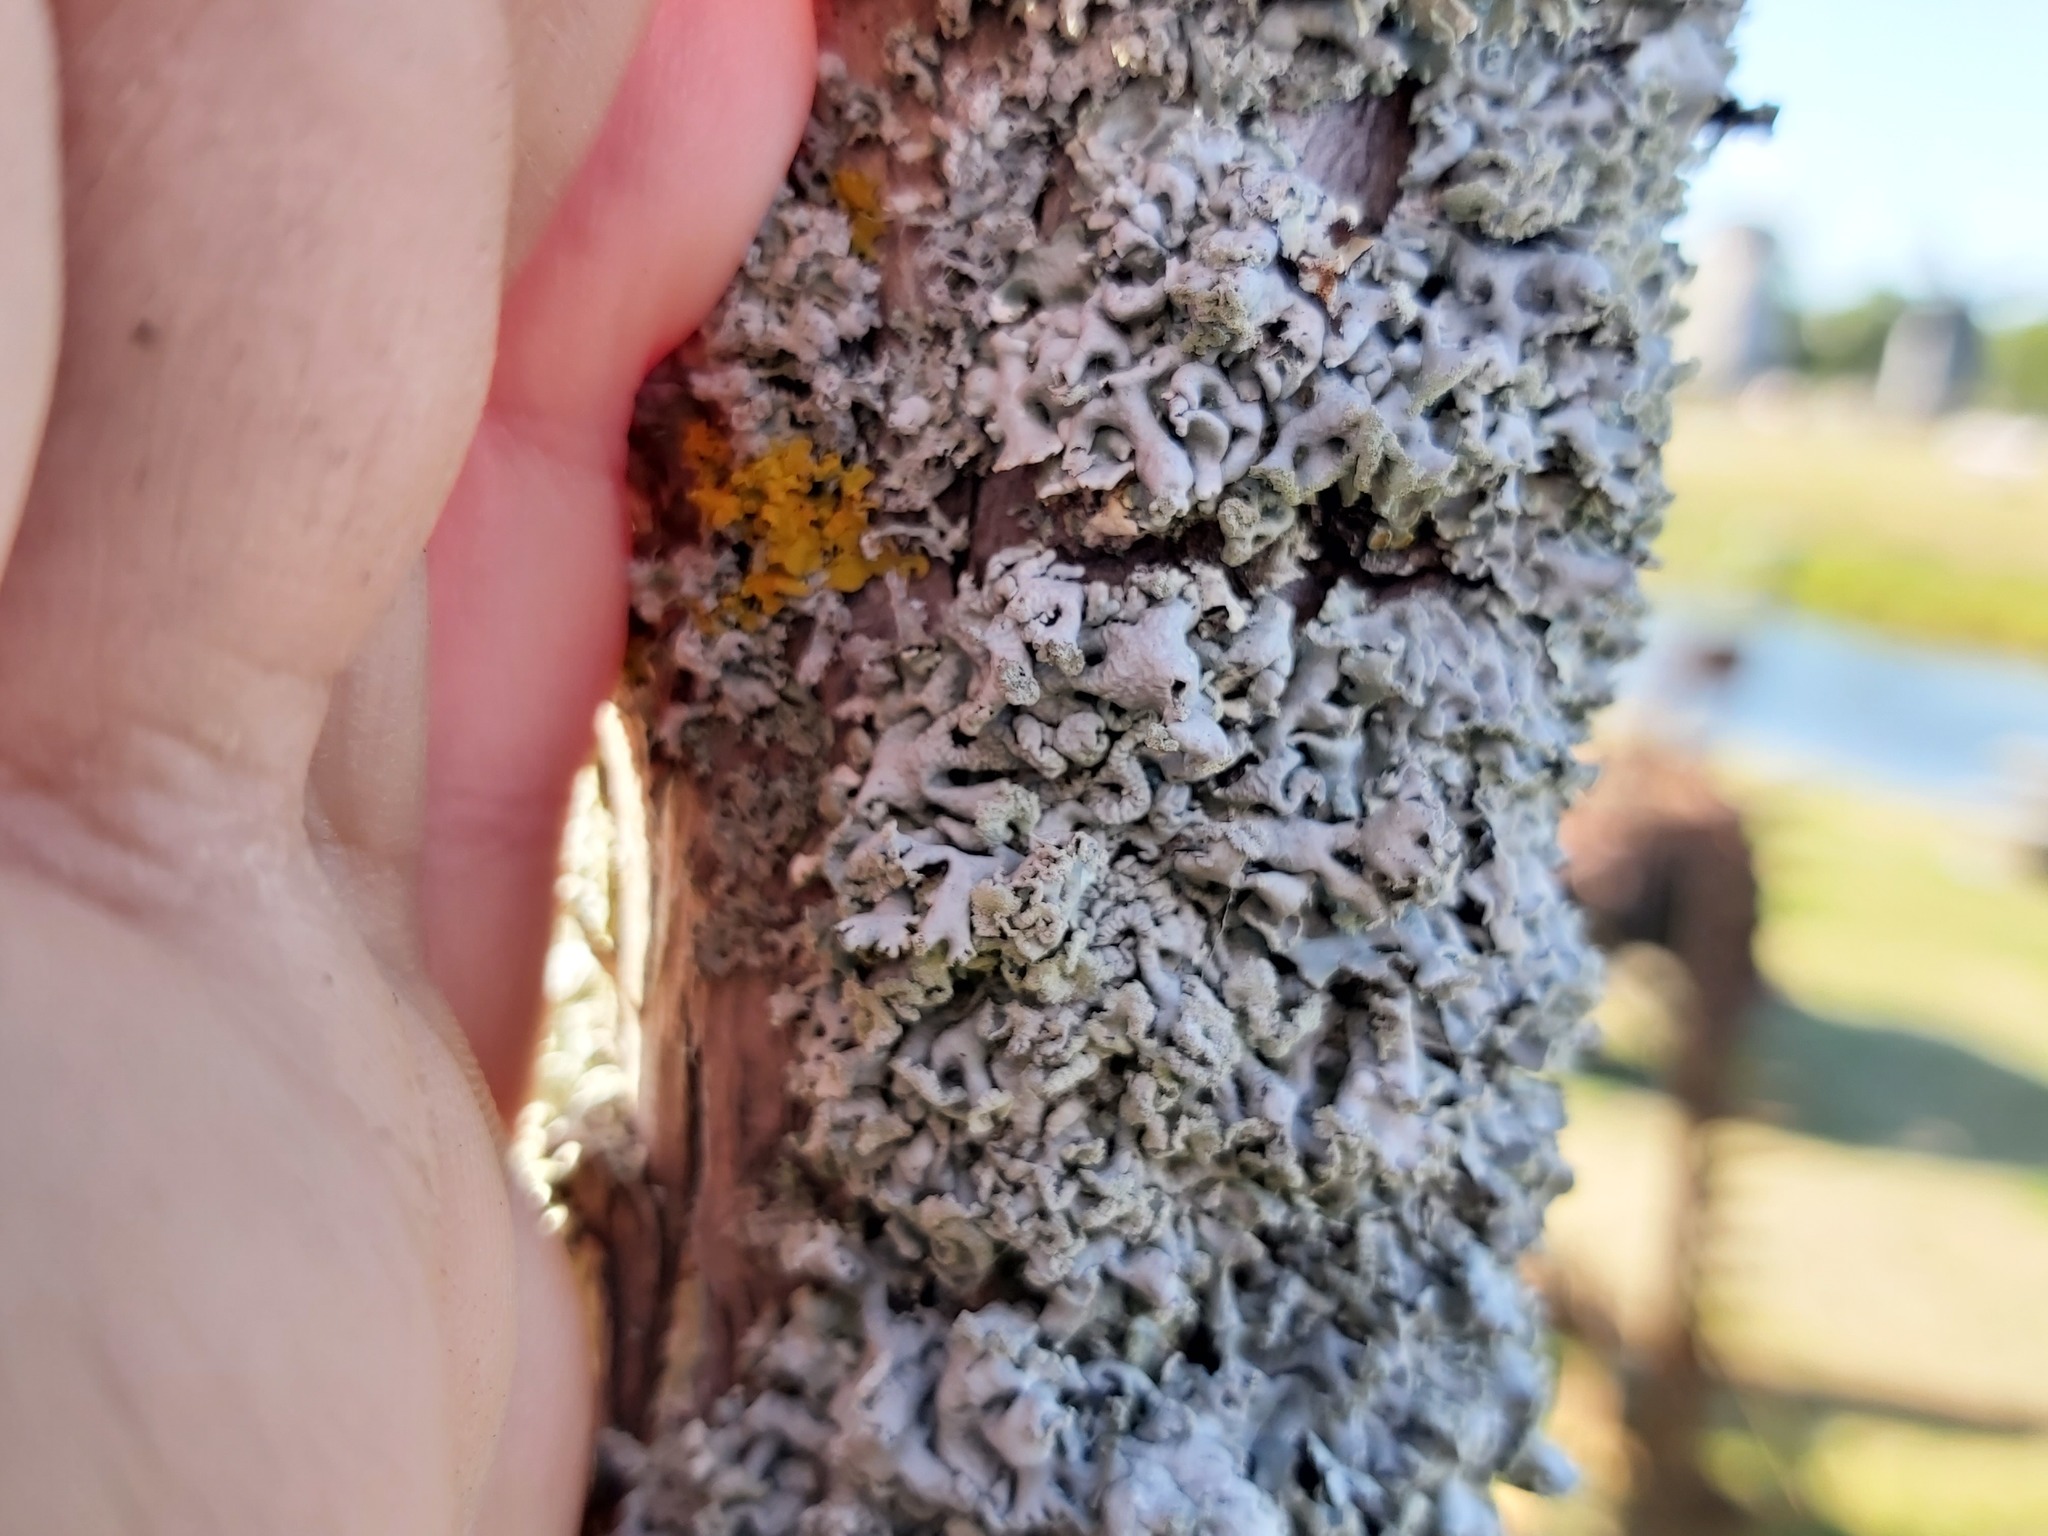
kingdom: Fungi
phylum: Ascomycota
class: Lecanoromycetes
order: Lecanorales
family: Parmeliaceae
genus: Hypogymnia
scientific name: Hypogymnia physodes
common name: Dark crottle
